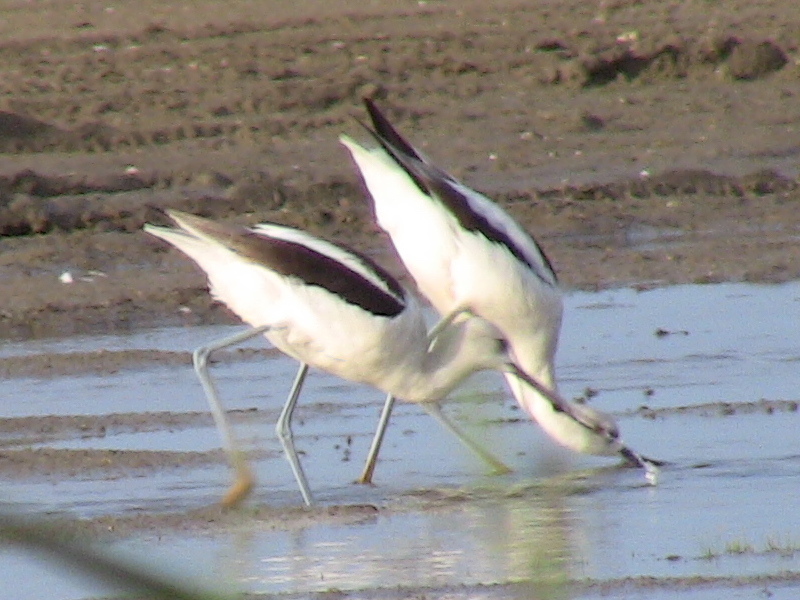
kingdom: Animalia
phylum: Chordata
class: Aves
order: Charadriiformes
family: Recurvirostridae
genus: Recurvirostra
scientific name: Recurvirostra americana
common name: American avocet
